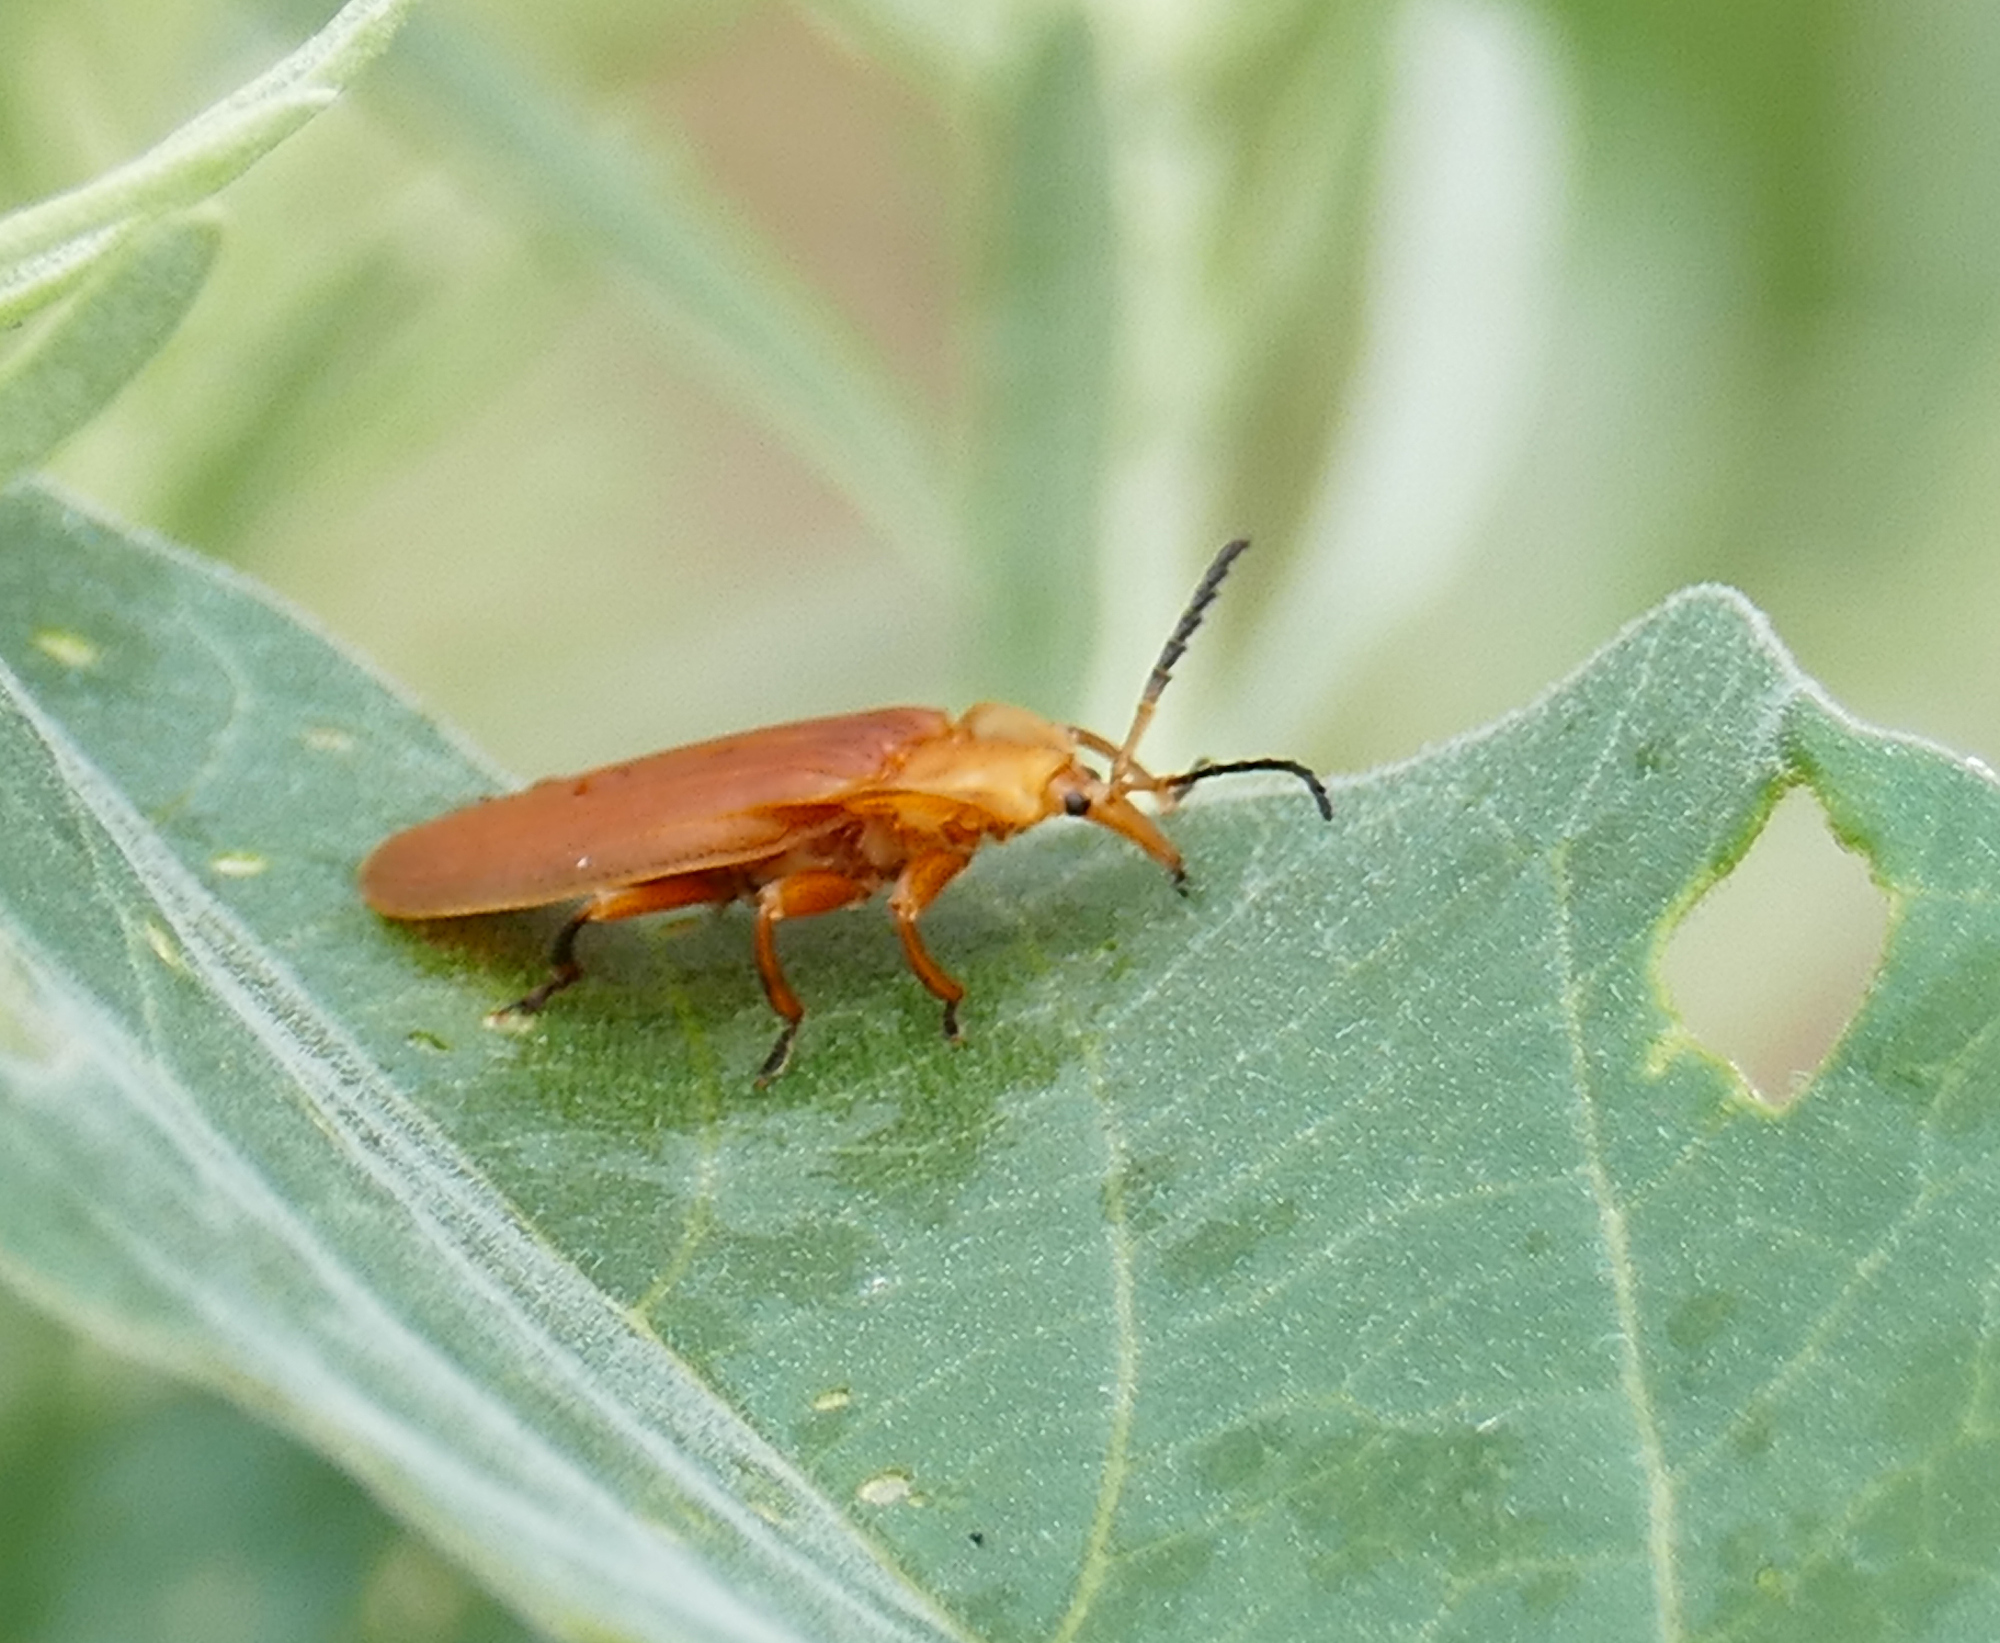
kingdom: Animalia
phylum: Arthropoda
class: Insecta
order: Coleoptera
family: Lycidae
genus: Lycus
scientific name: Lycus loripes
